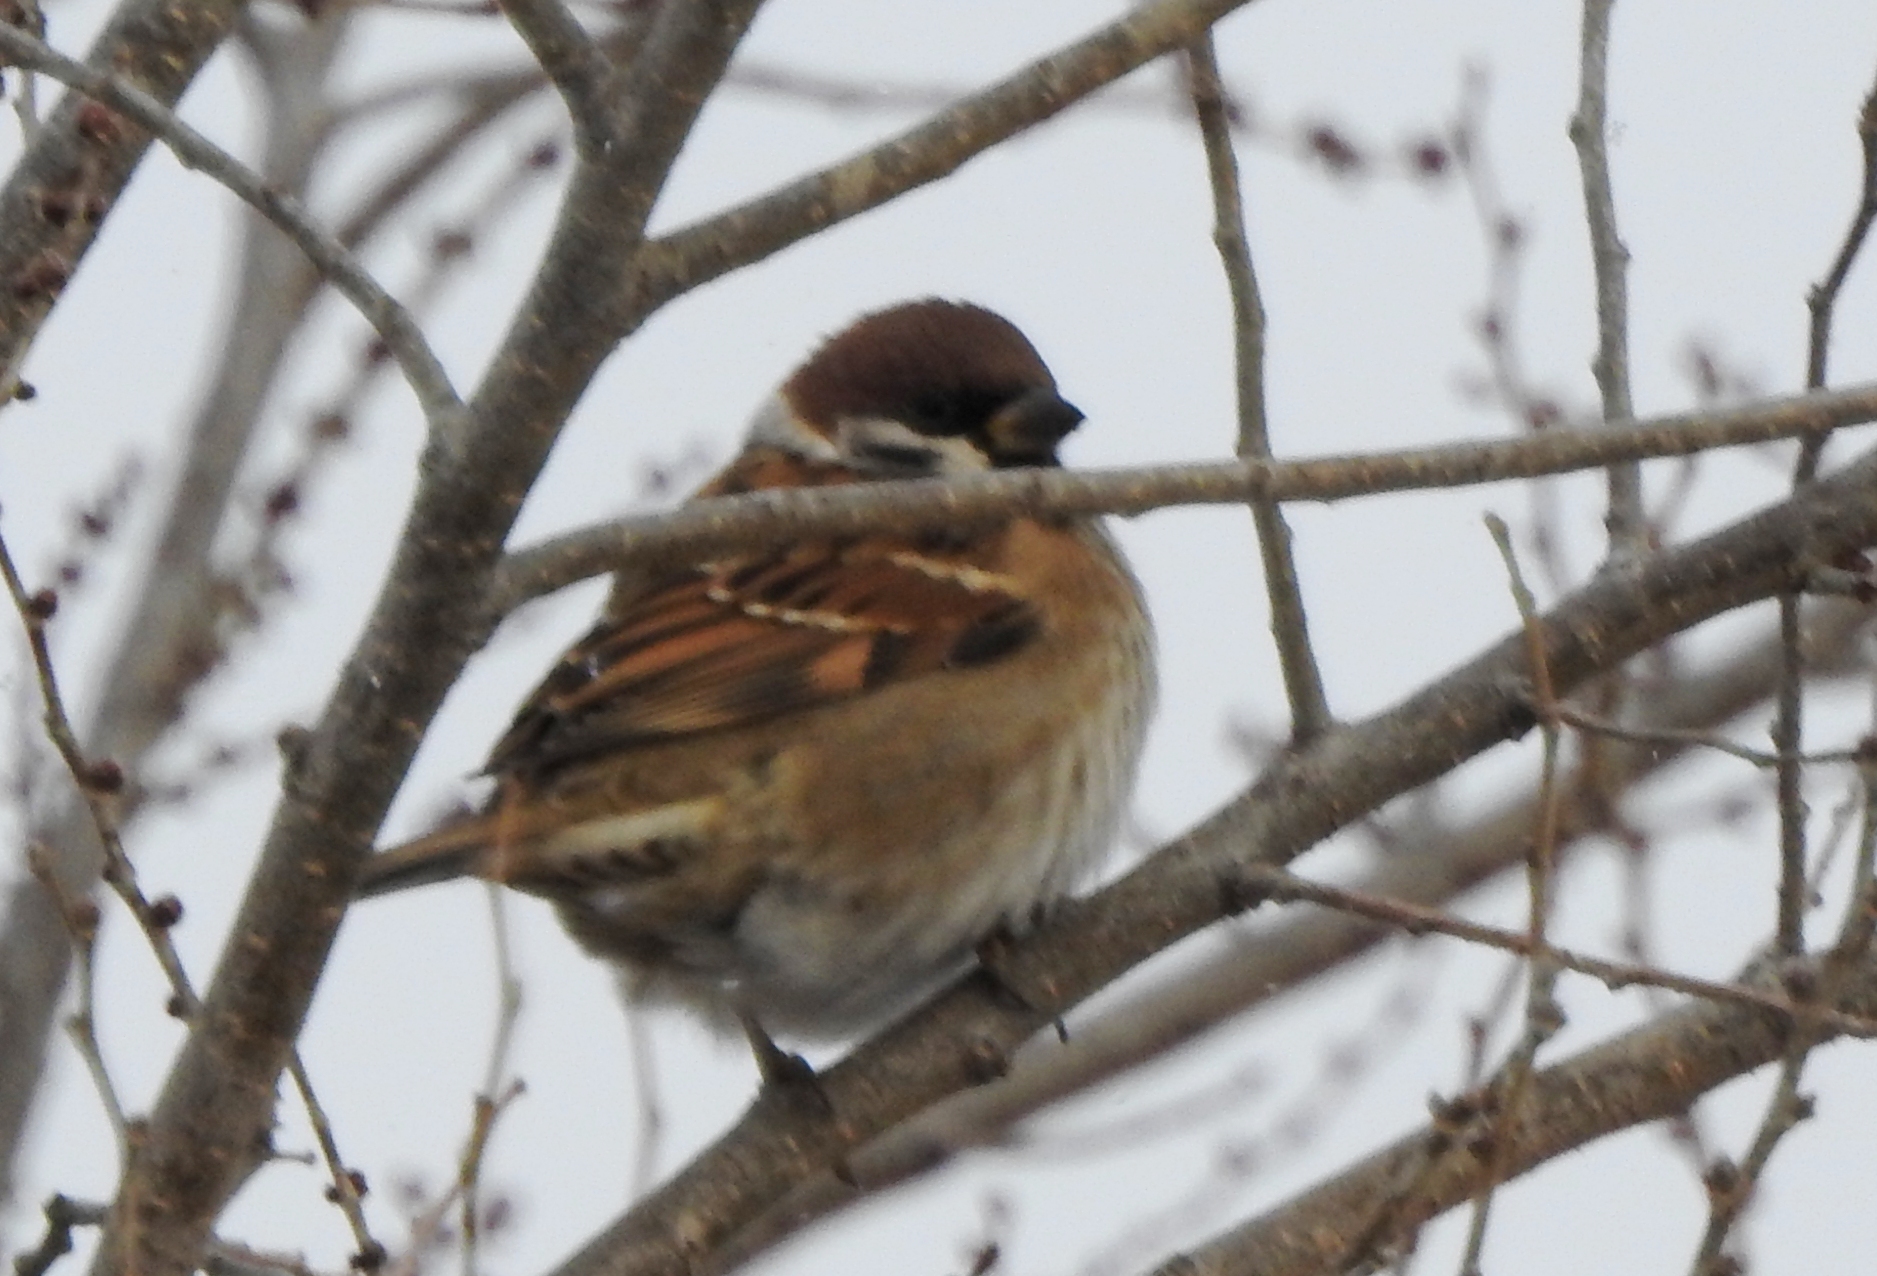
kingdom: Animalia
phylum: Chordata
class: Aves
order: Passeriformes
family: Passeridae
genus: Passer
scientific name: Passer montanus
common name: Eurasian tree sparrow
